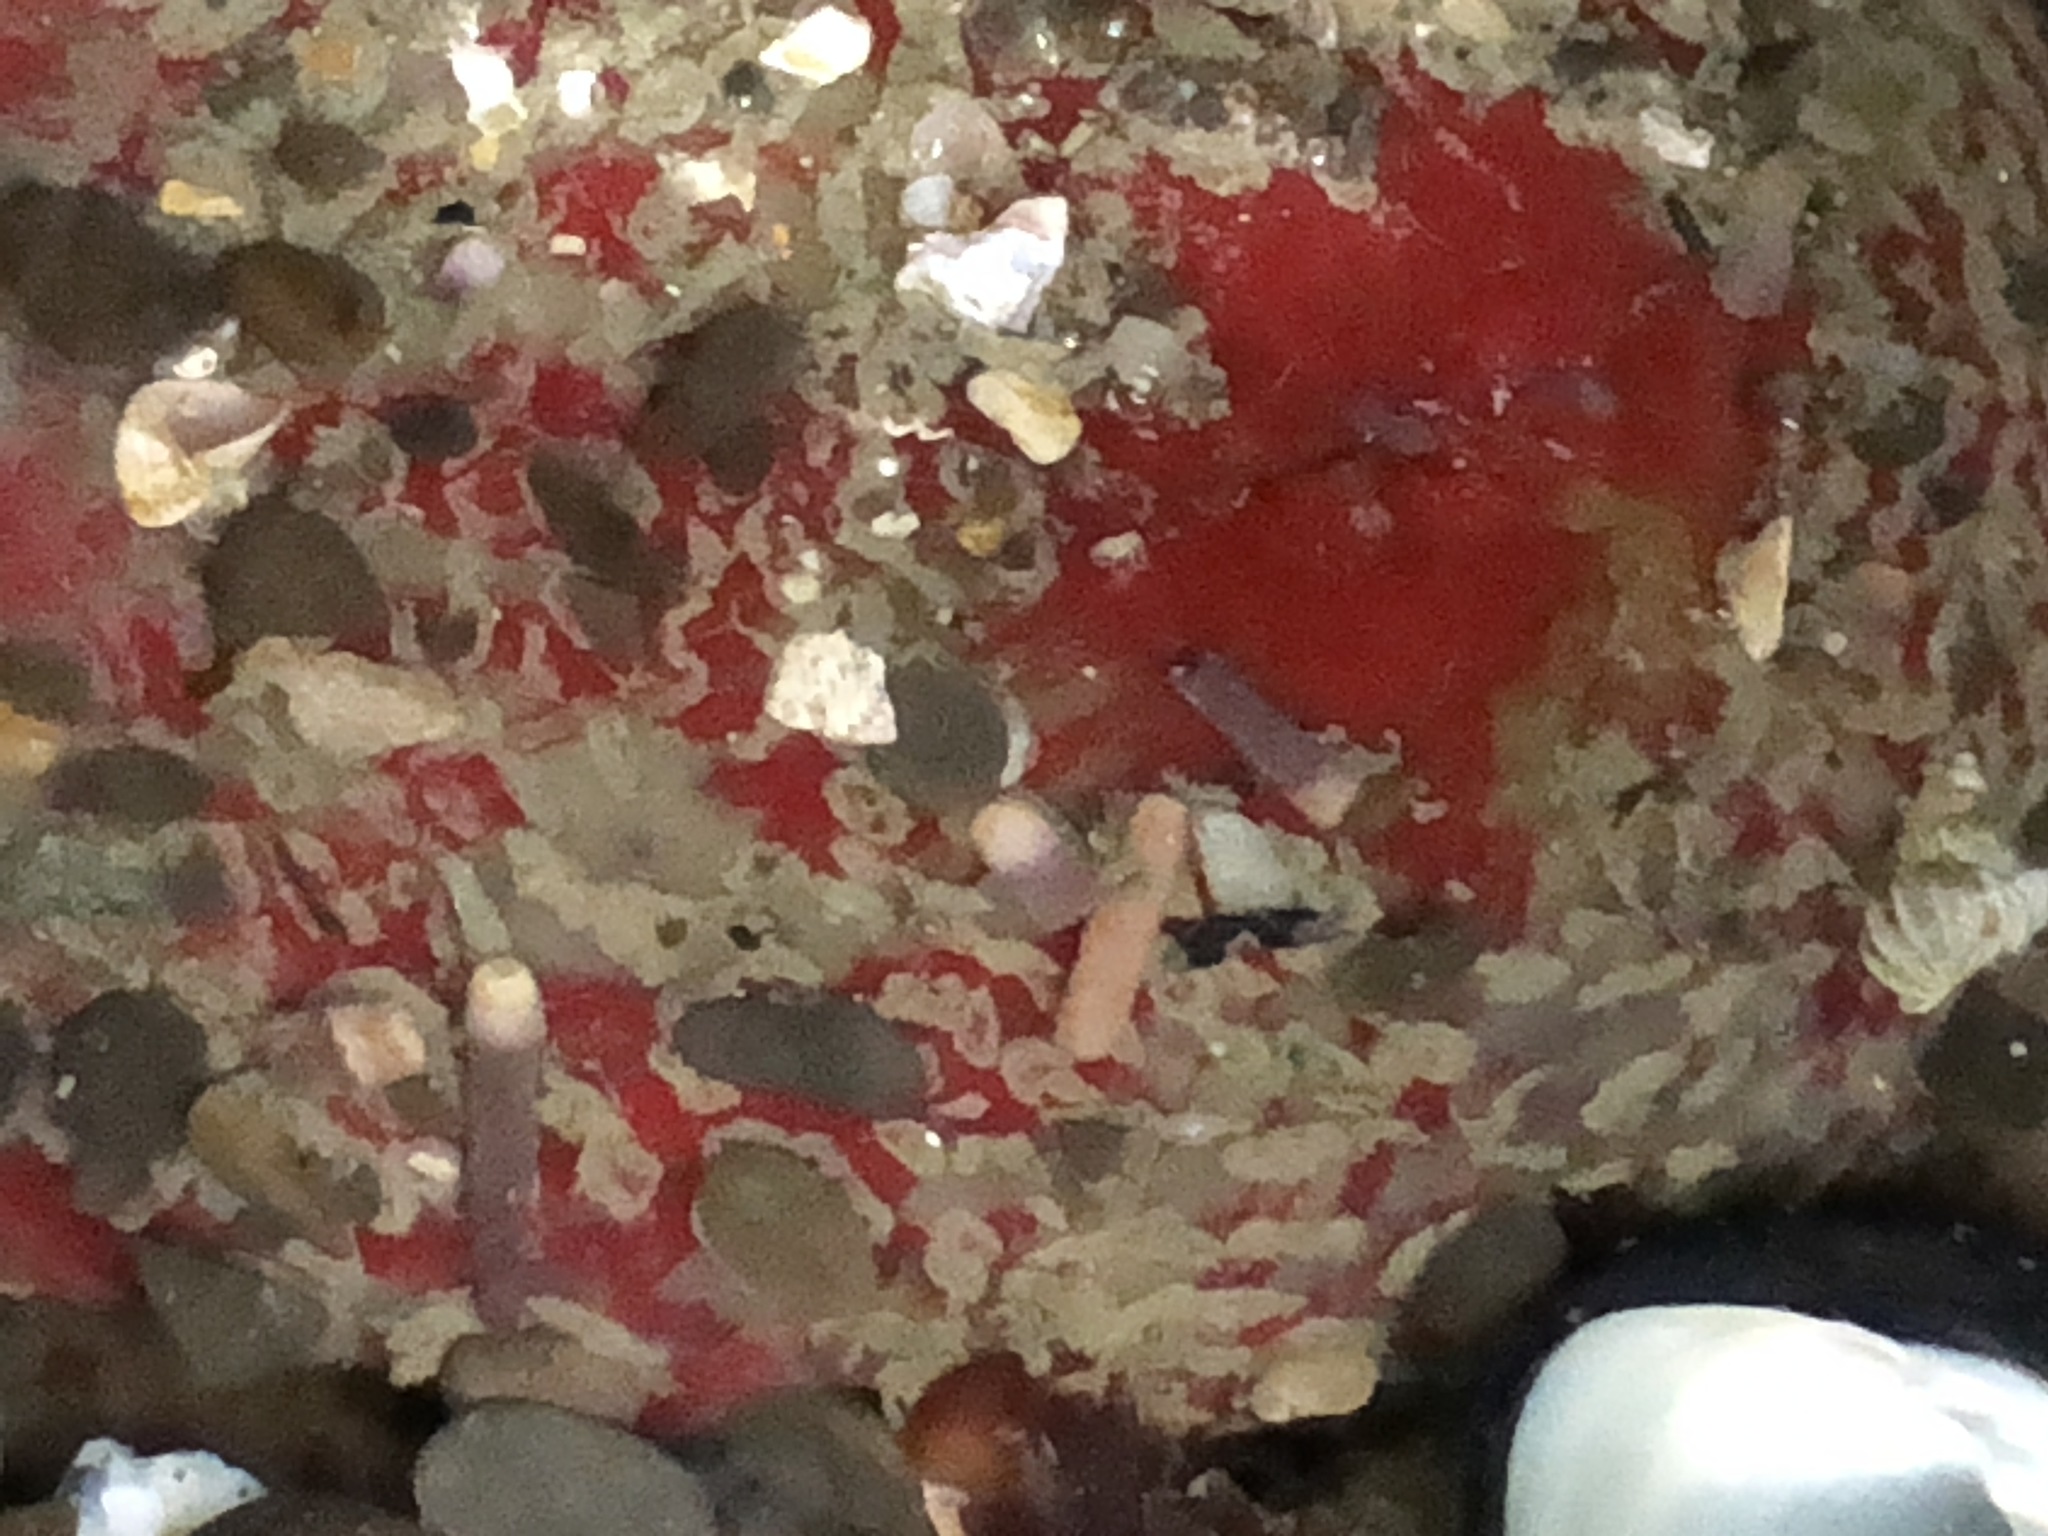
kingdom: Animalia
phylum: Cnidaria
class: Anthozoa
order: Actiniaria
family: Actiniidae
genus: Urticina
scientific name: Urticina grebelnyi
